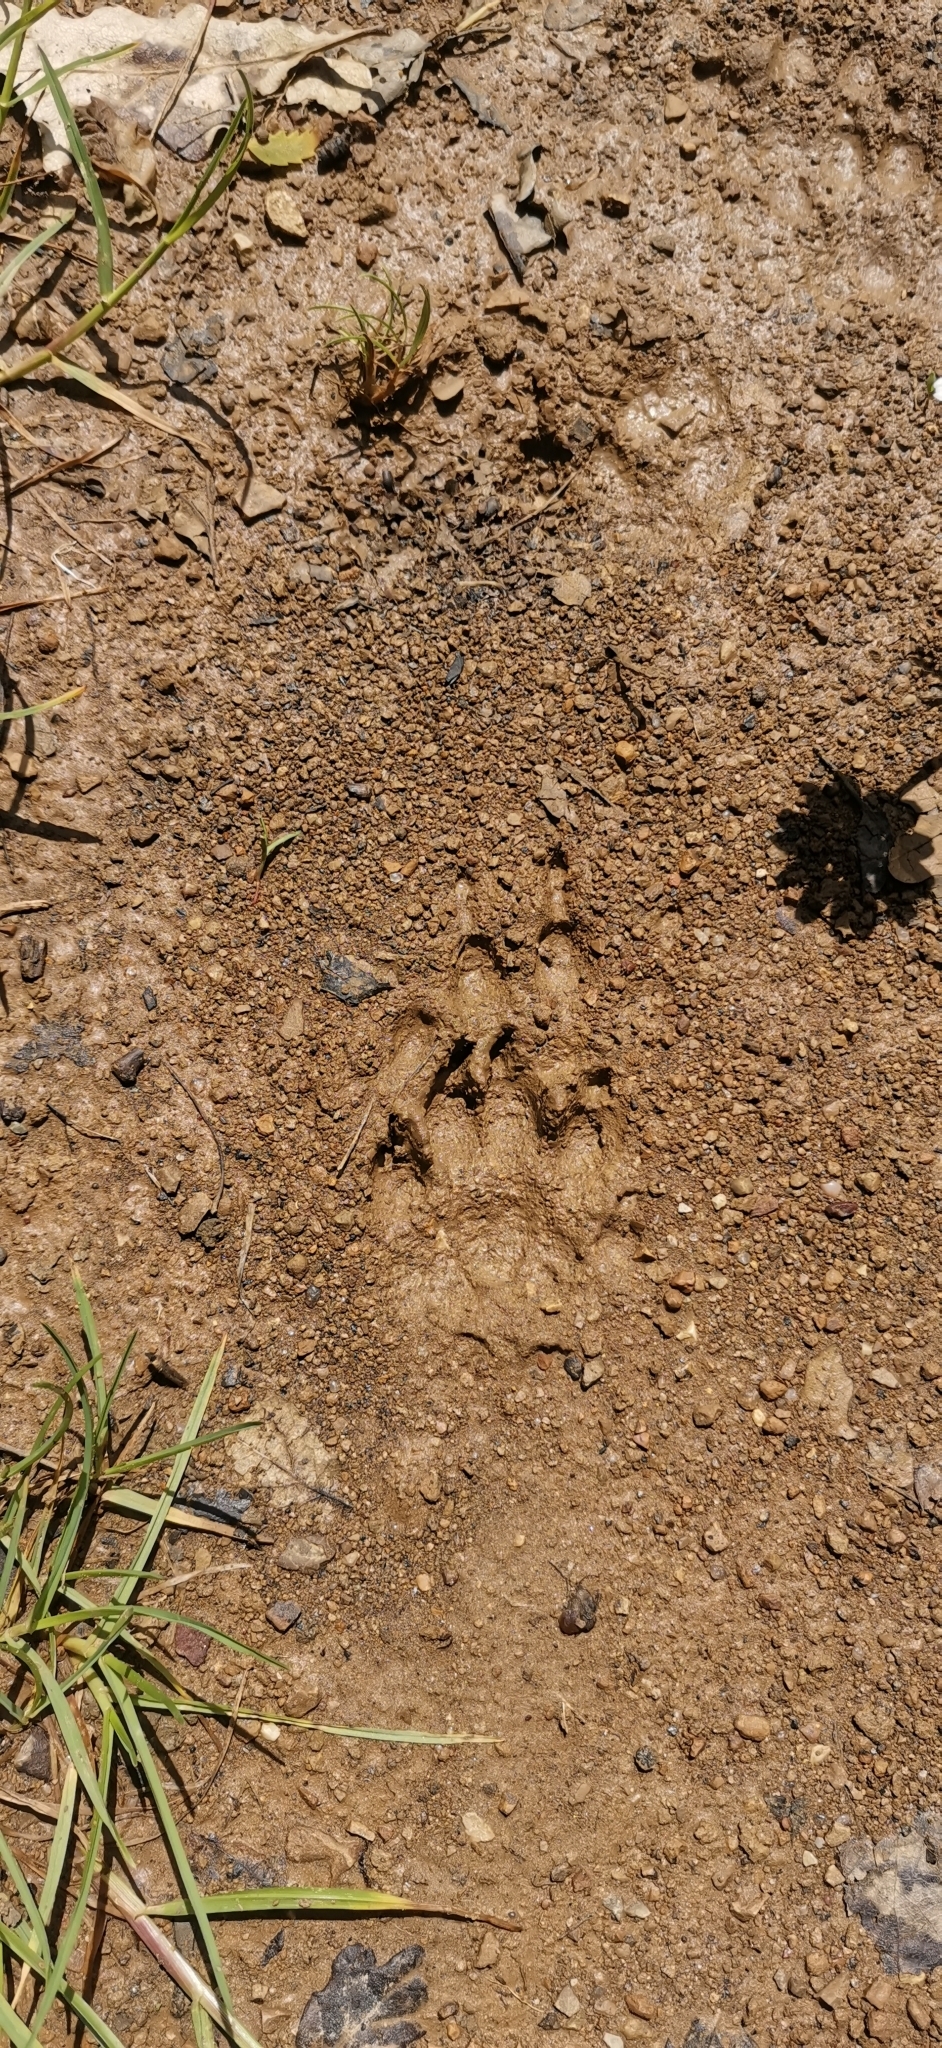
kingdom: Animalia
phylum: Chordata
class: Mammalia
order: Carnivora
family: Mustelidae
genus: Meles
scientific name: Meles meles
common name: Eurasian badger
